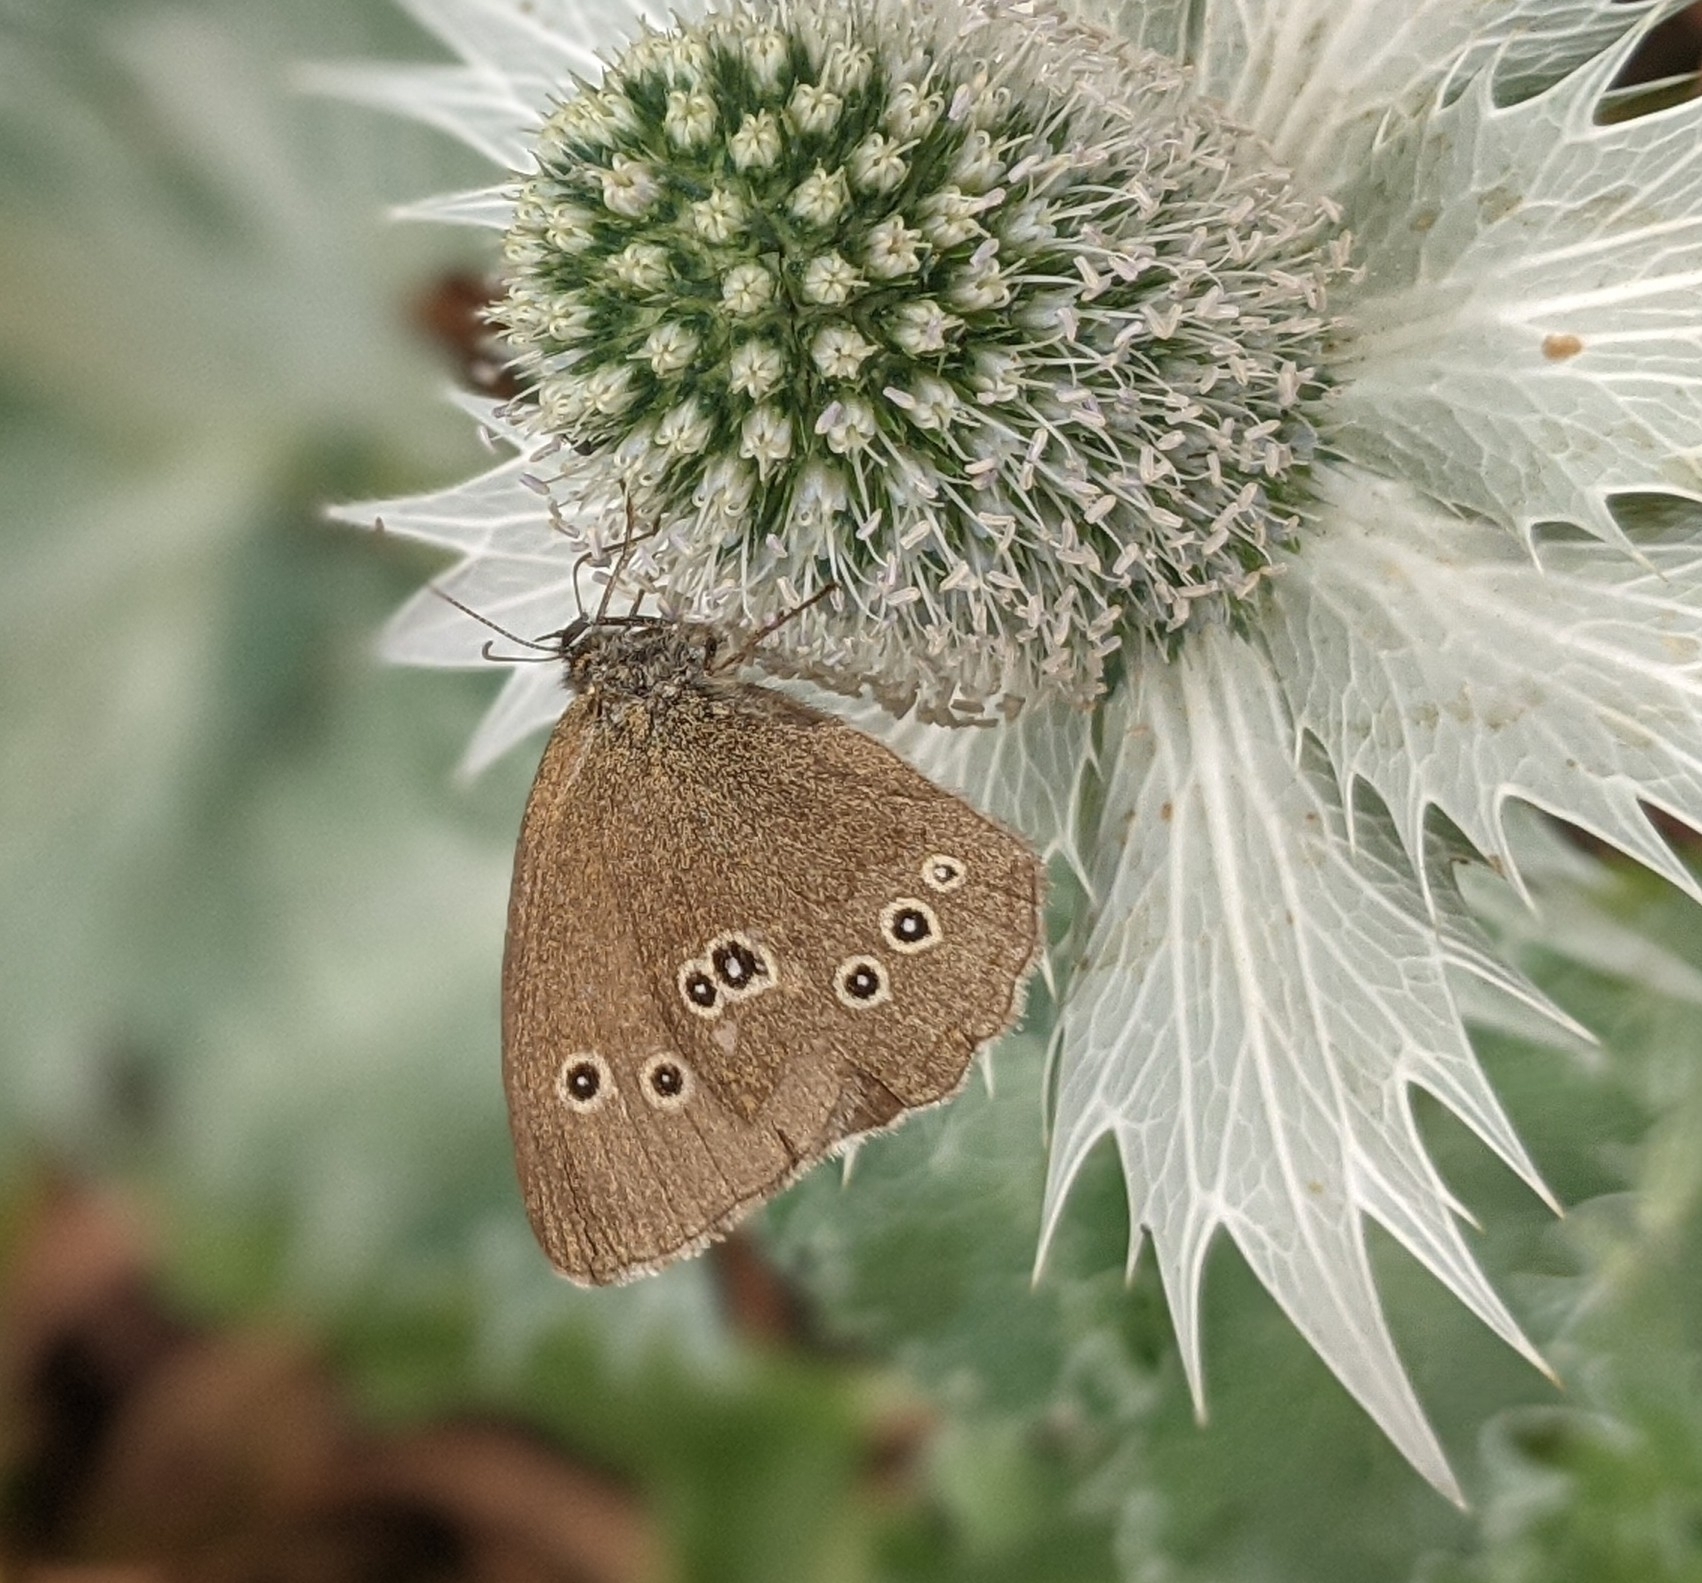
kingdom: Animalia
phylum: Arthropoda
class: Insecta
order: Lepidoptera
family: Nymphalidae
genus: Aphantopus
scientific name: Aphantopus hyperantus
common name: Ringlet
